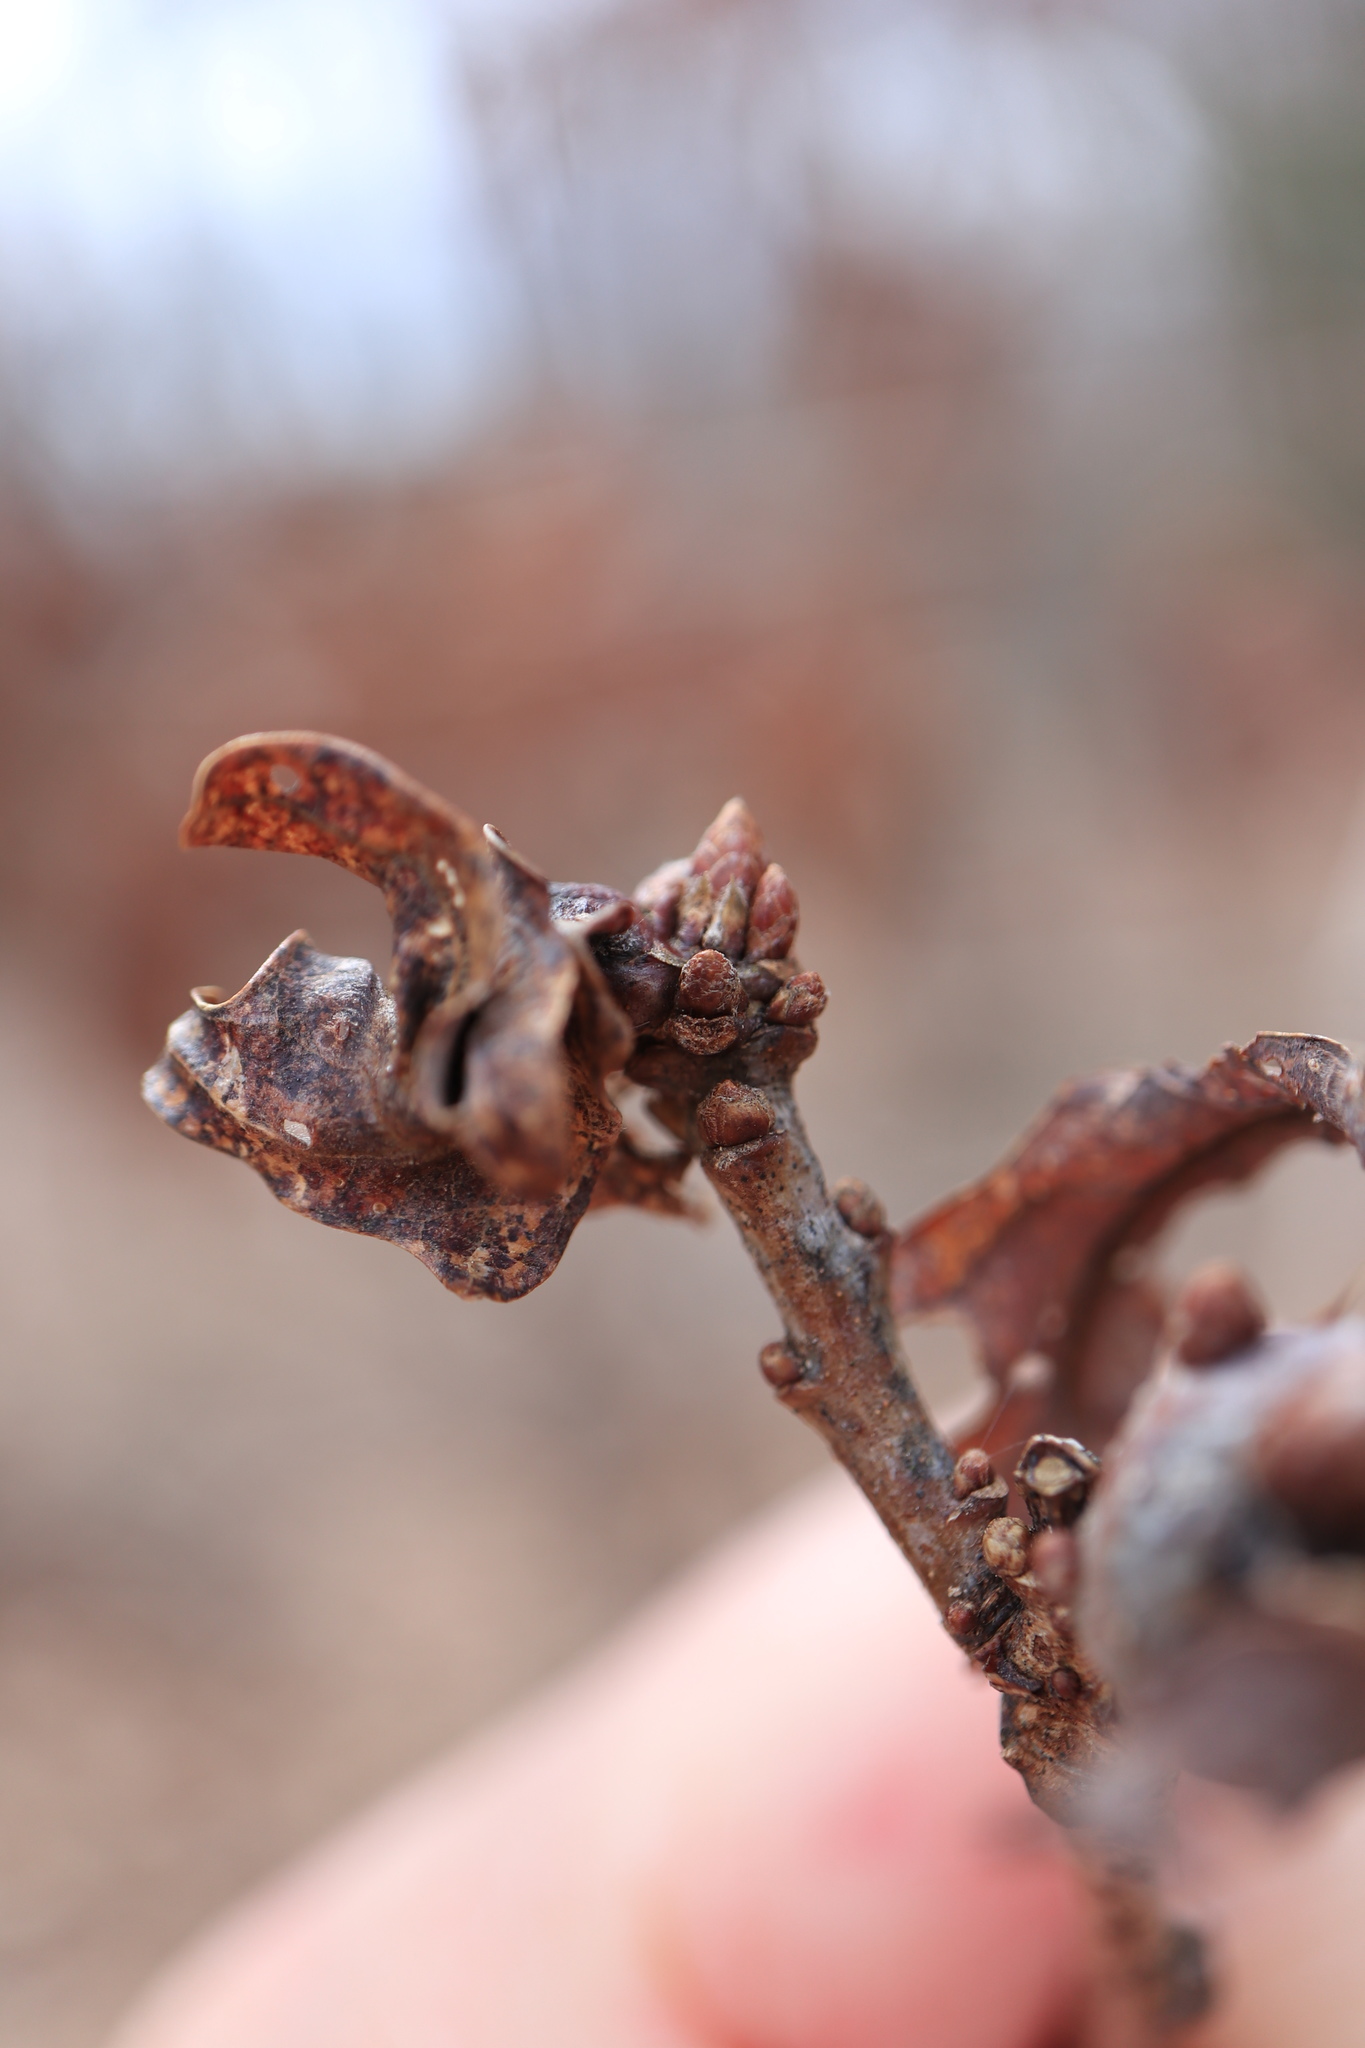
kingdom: Animalia
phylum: Arthropoda
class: Insecta
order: Hymenoptera
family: Cynipidae
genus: Neuroterus
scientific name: Neuroterus quercusbaccarum
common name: Common spangle gall
